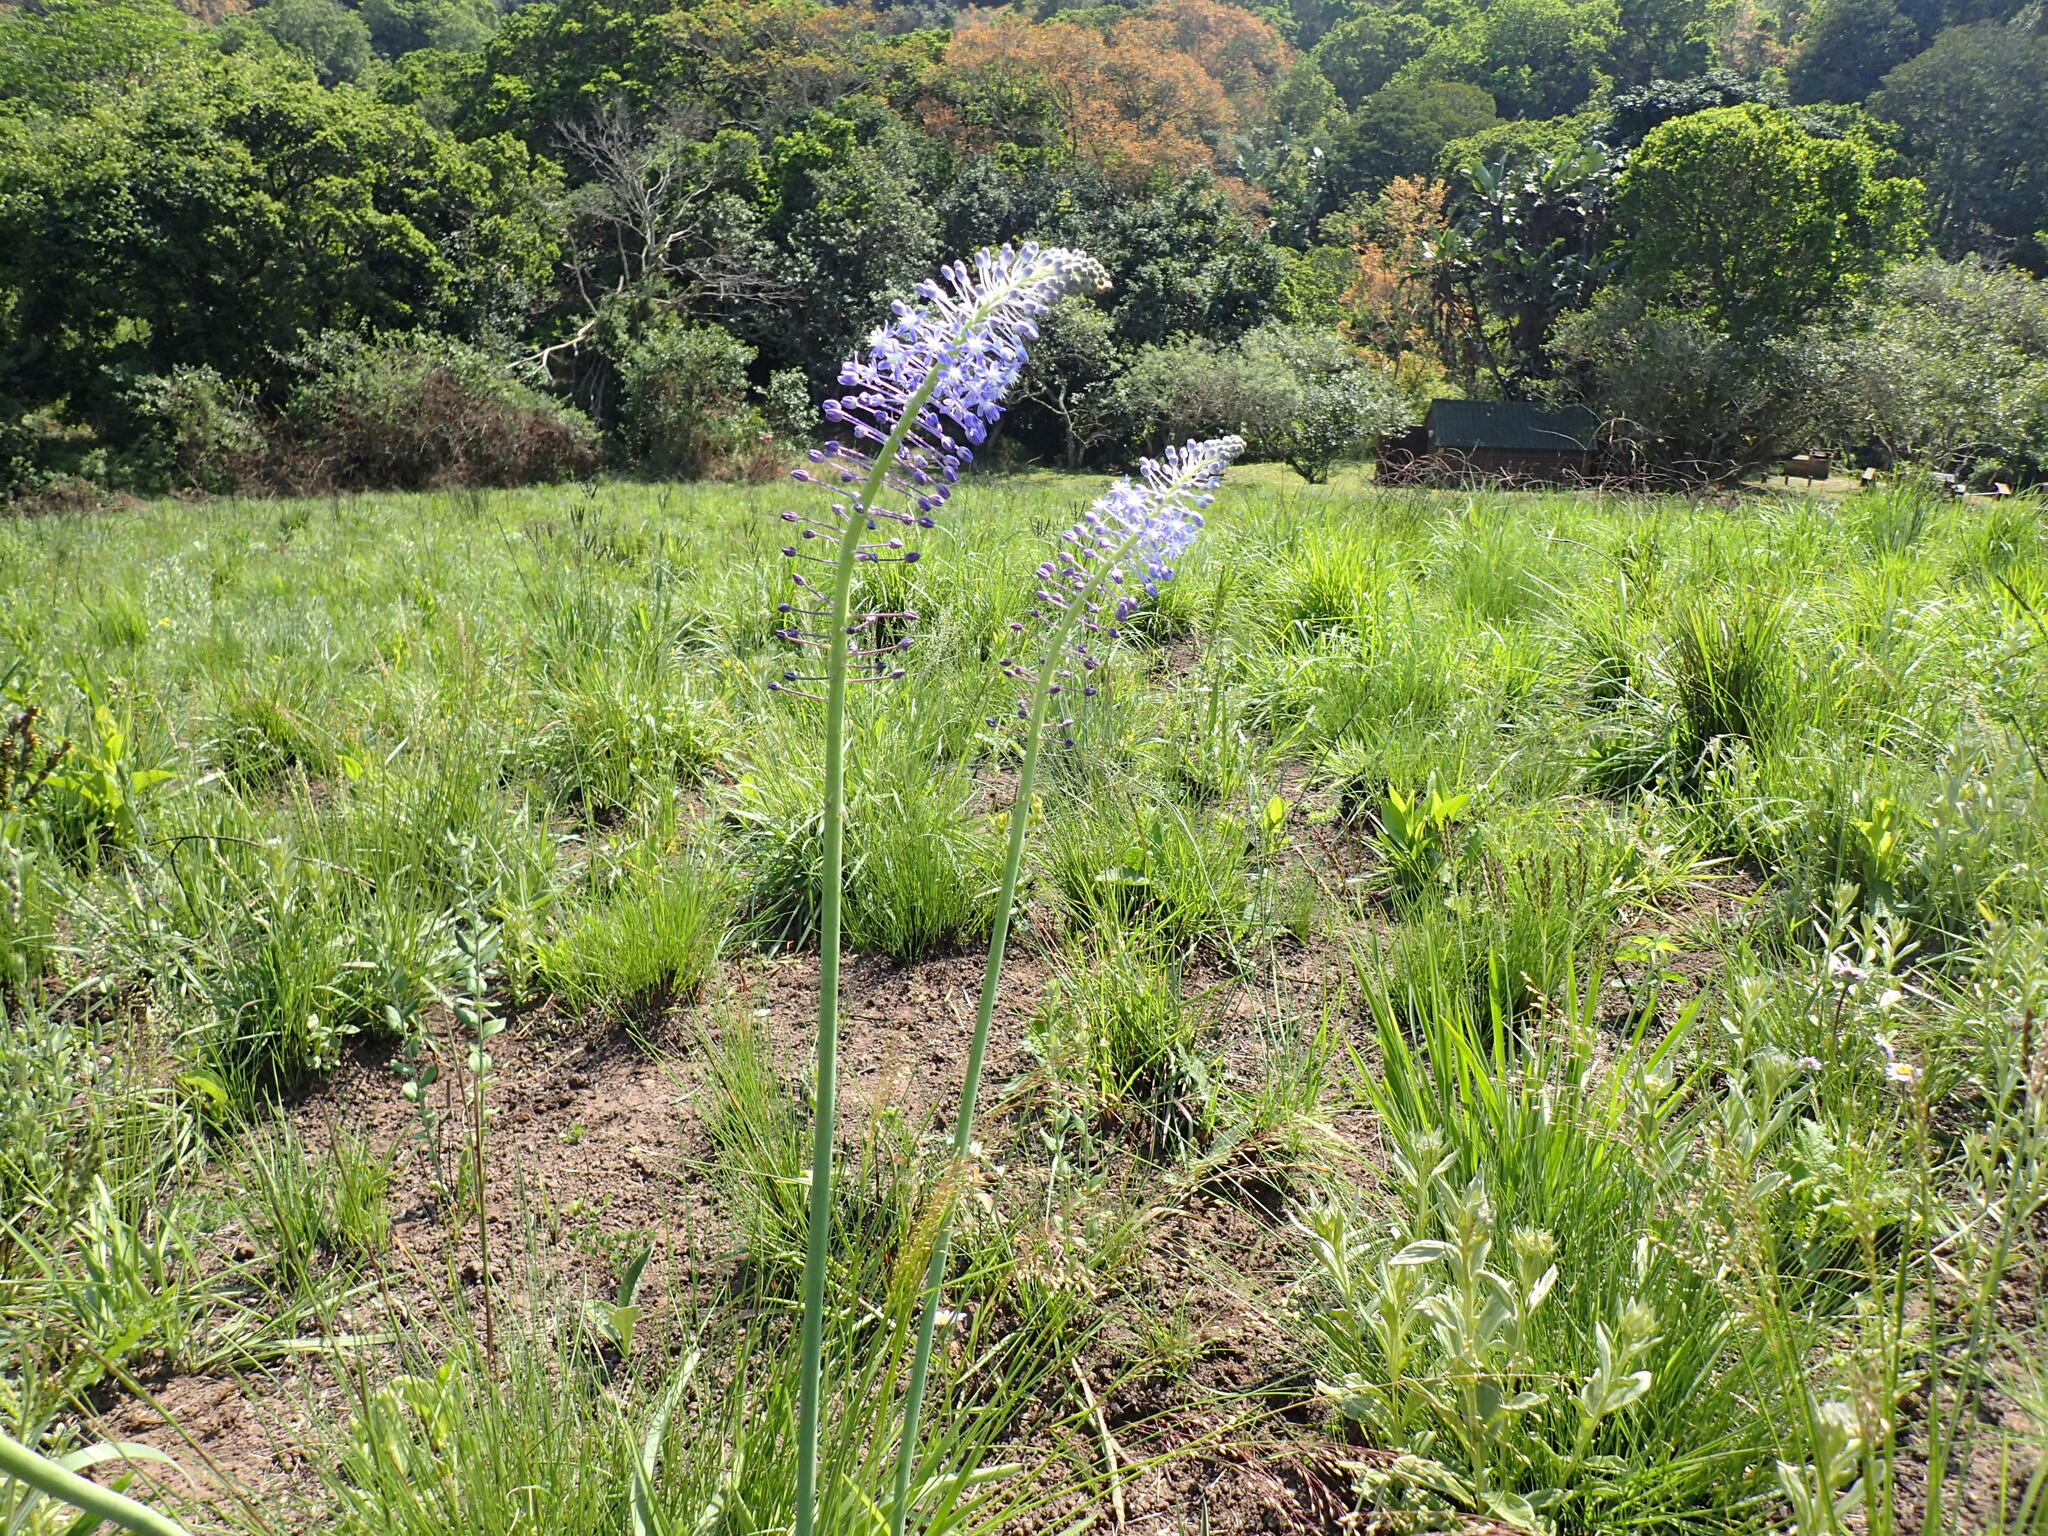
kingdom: Plantae
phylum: Tracheophyta
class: Liliopsida
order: Asparagales
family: Asparagaceae
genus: Merwilla
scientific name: Merwilla plumbea
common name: Blue-squill
